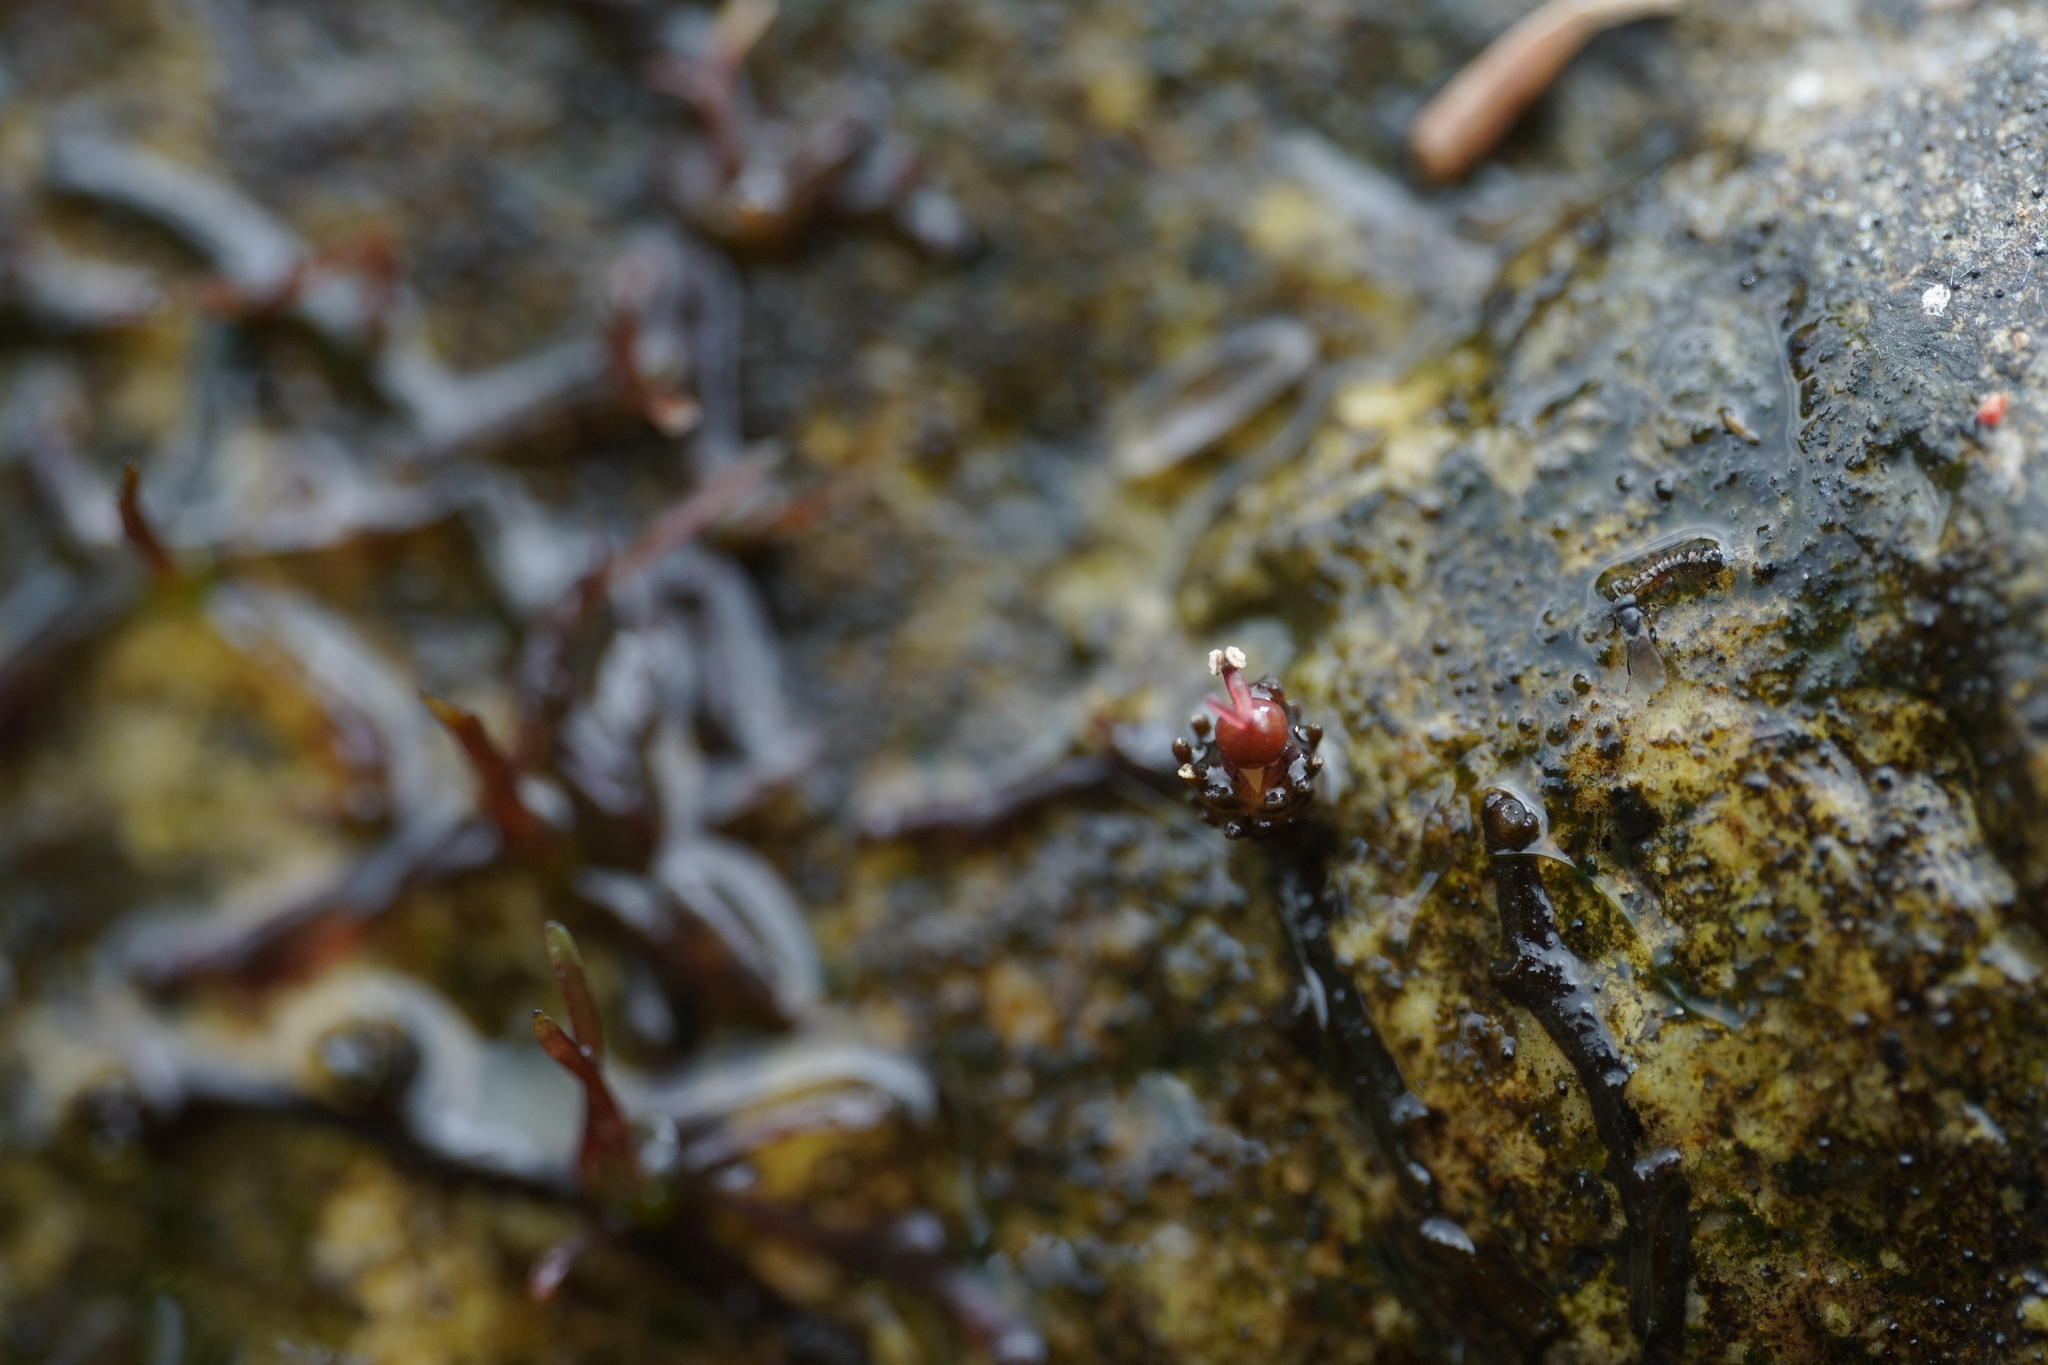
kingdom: Plantae
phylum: Tracheophyta
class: Magnoliopsida
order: Malpighiales
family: Podostemaceae
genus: Cladopus
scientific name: Cladopus fukienensis
